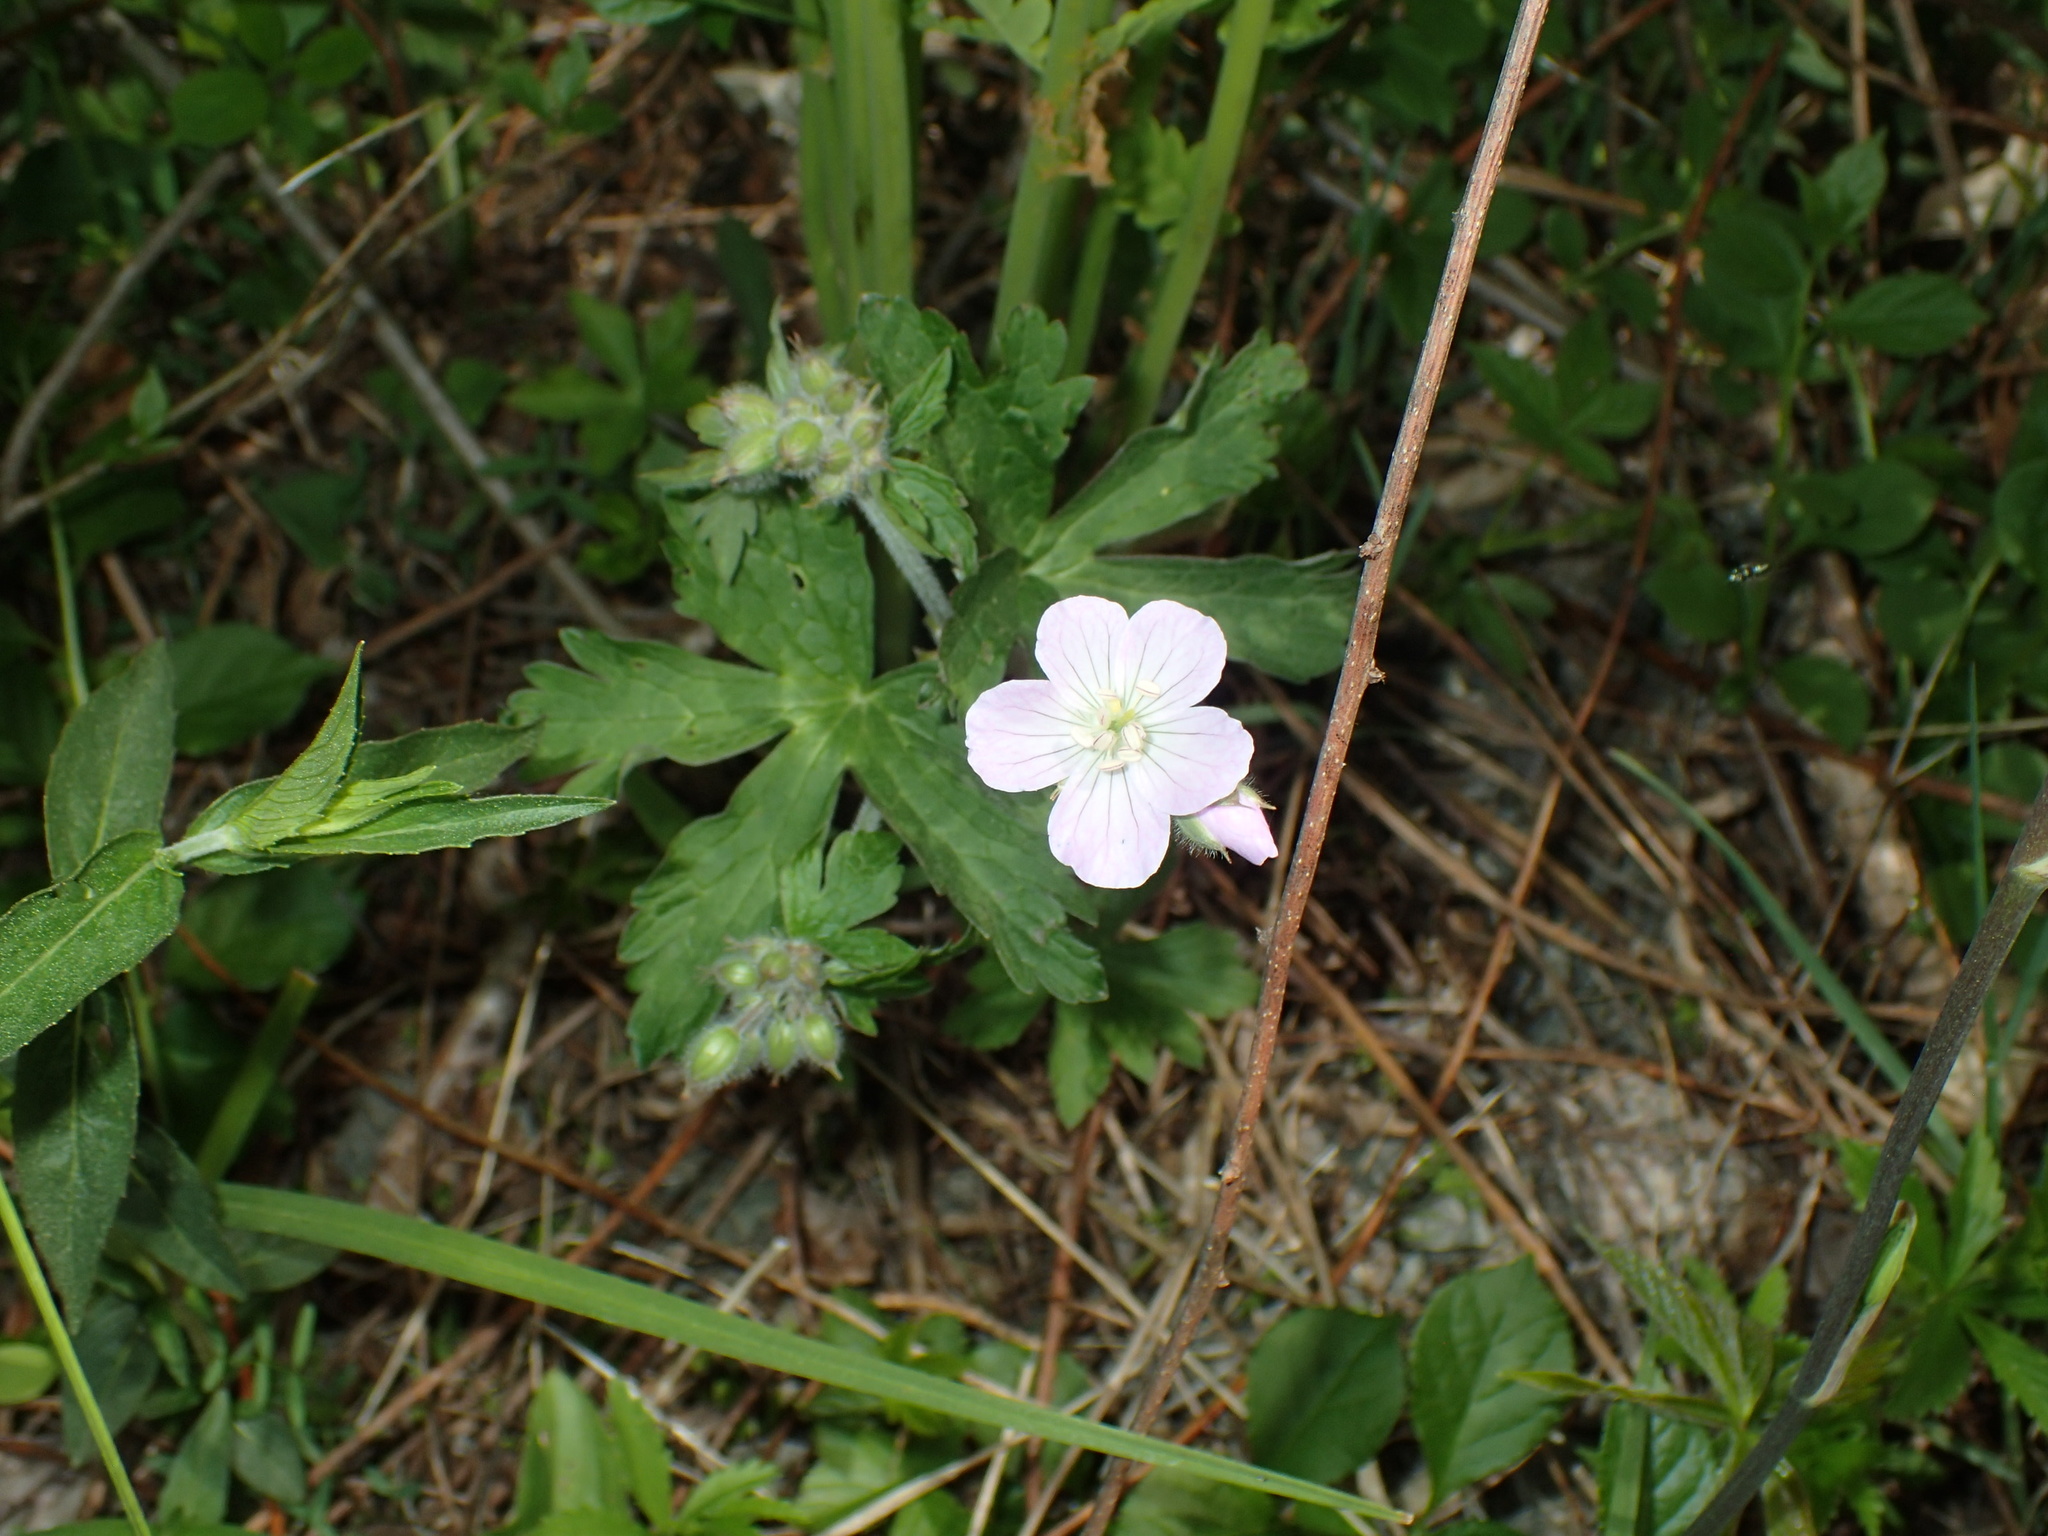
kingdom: Plantae
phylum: Tracheophyta
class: Magnoliopsida
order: Geraniales
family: Geraniaceae
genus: Geranium
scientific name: Geranium maculatum
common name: Spotted geranium
